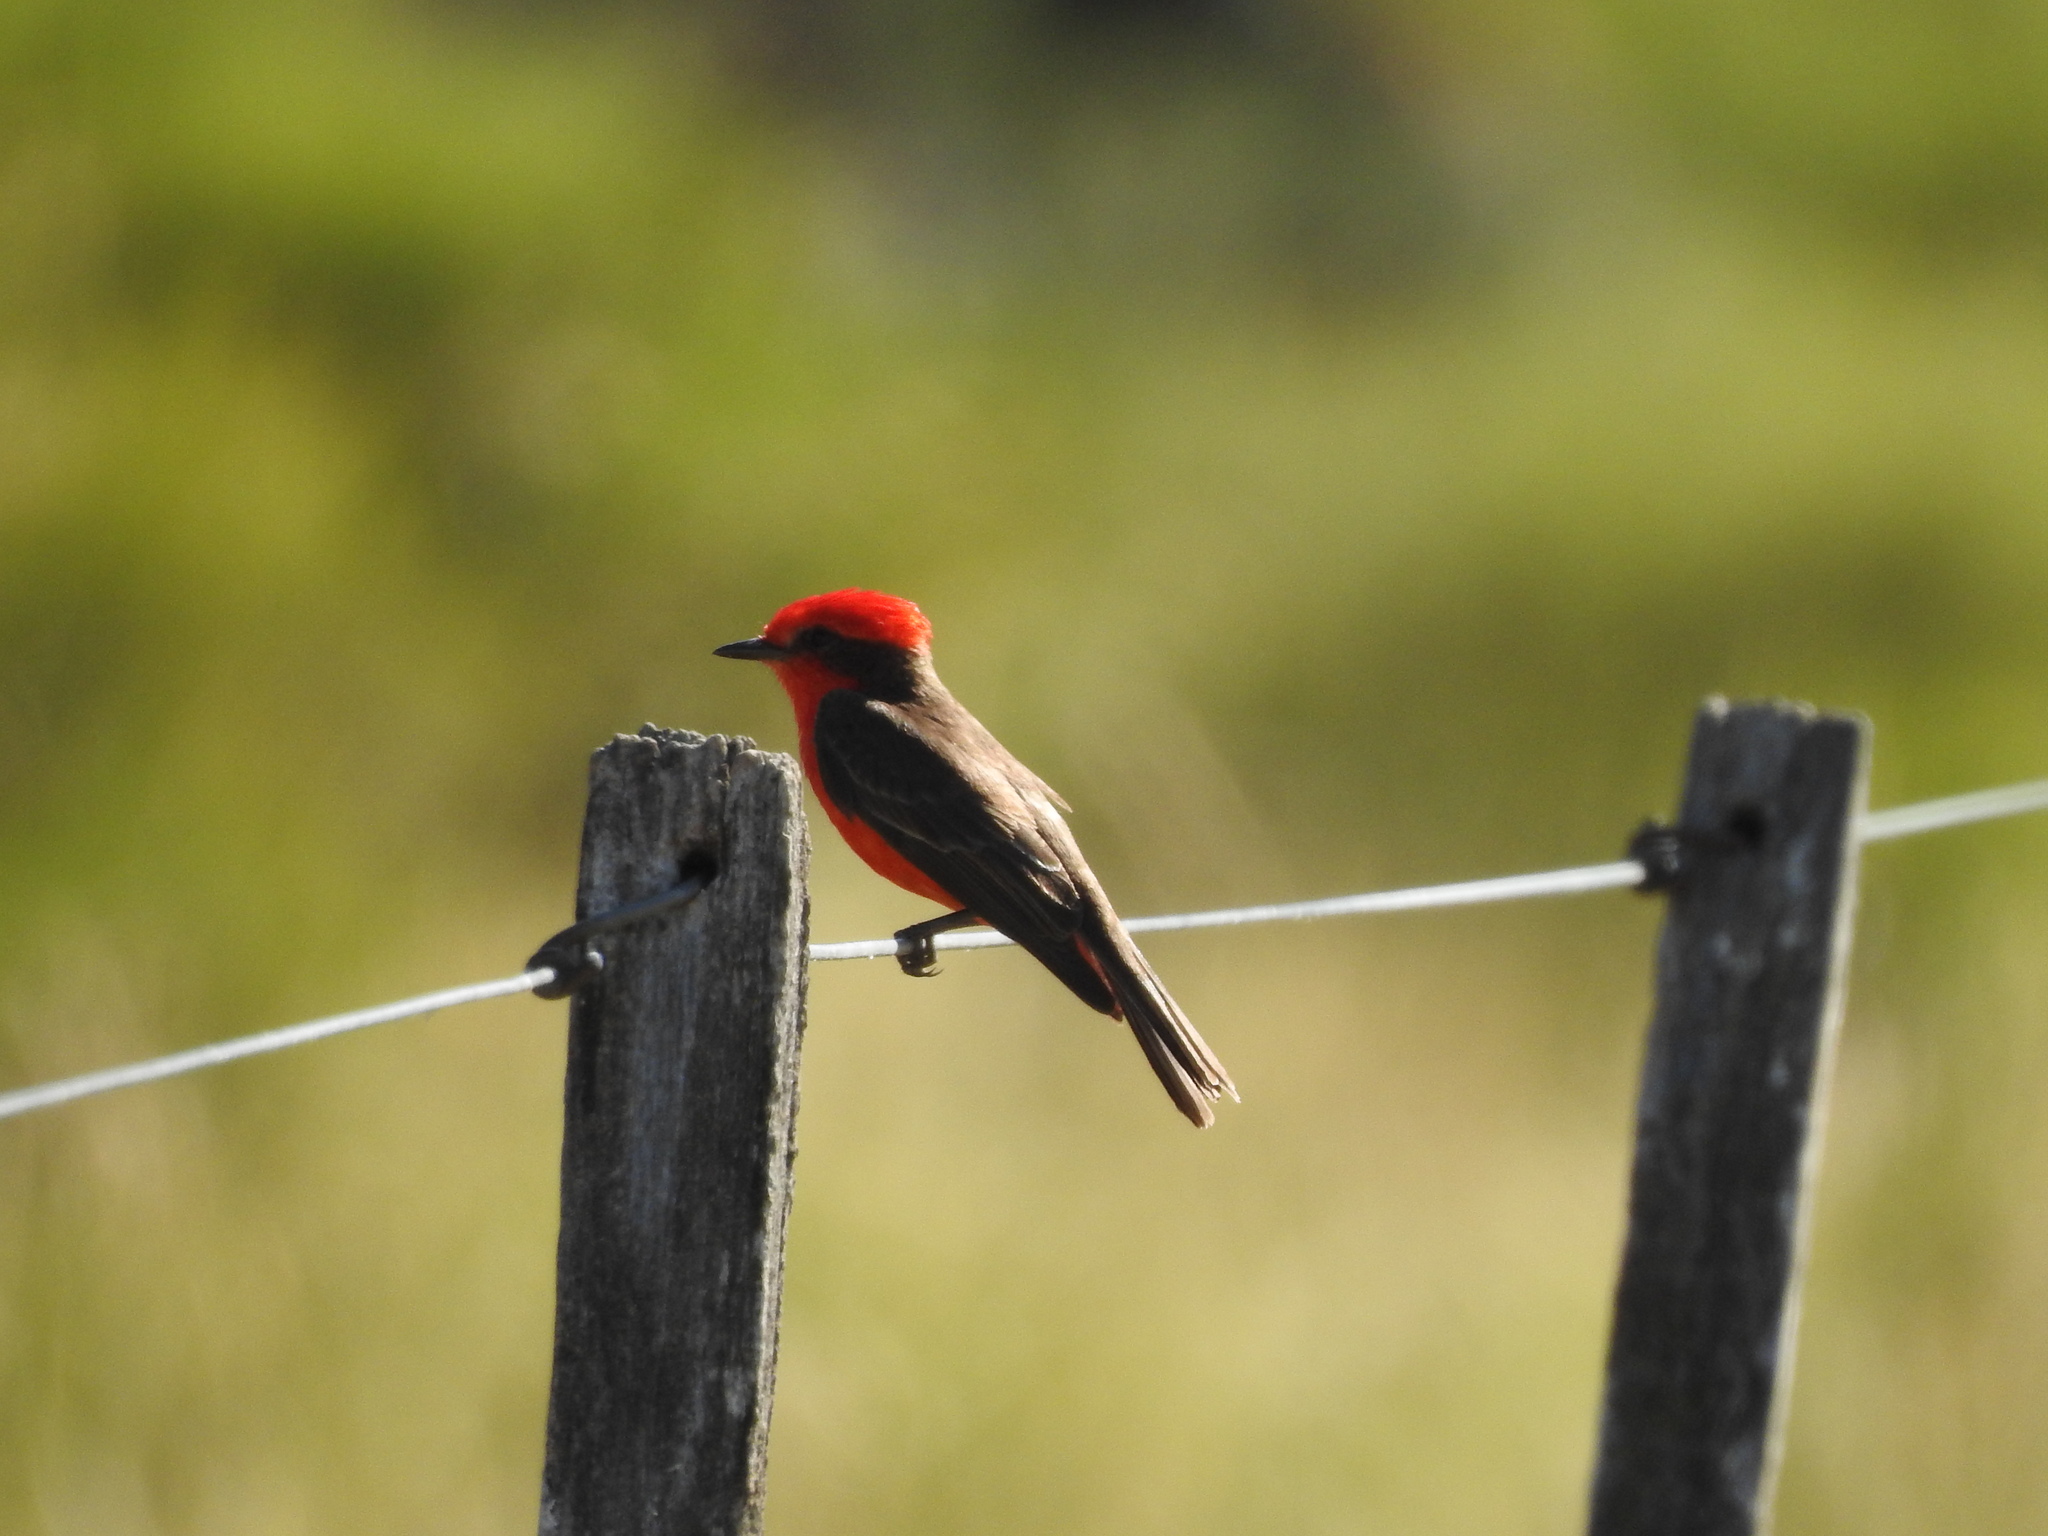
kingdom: Animalia
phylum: Chordata
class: Aves
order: Passeriformes
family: Tyrannidae
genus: Pyrocephalus
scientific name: Pyrocephalus rubinus
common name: Vermilion flycatcher
